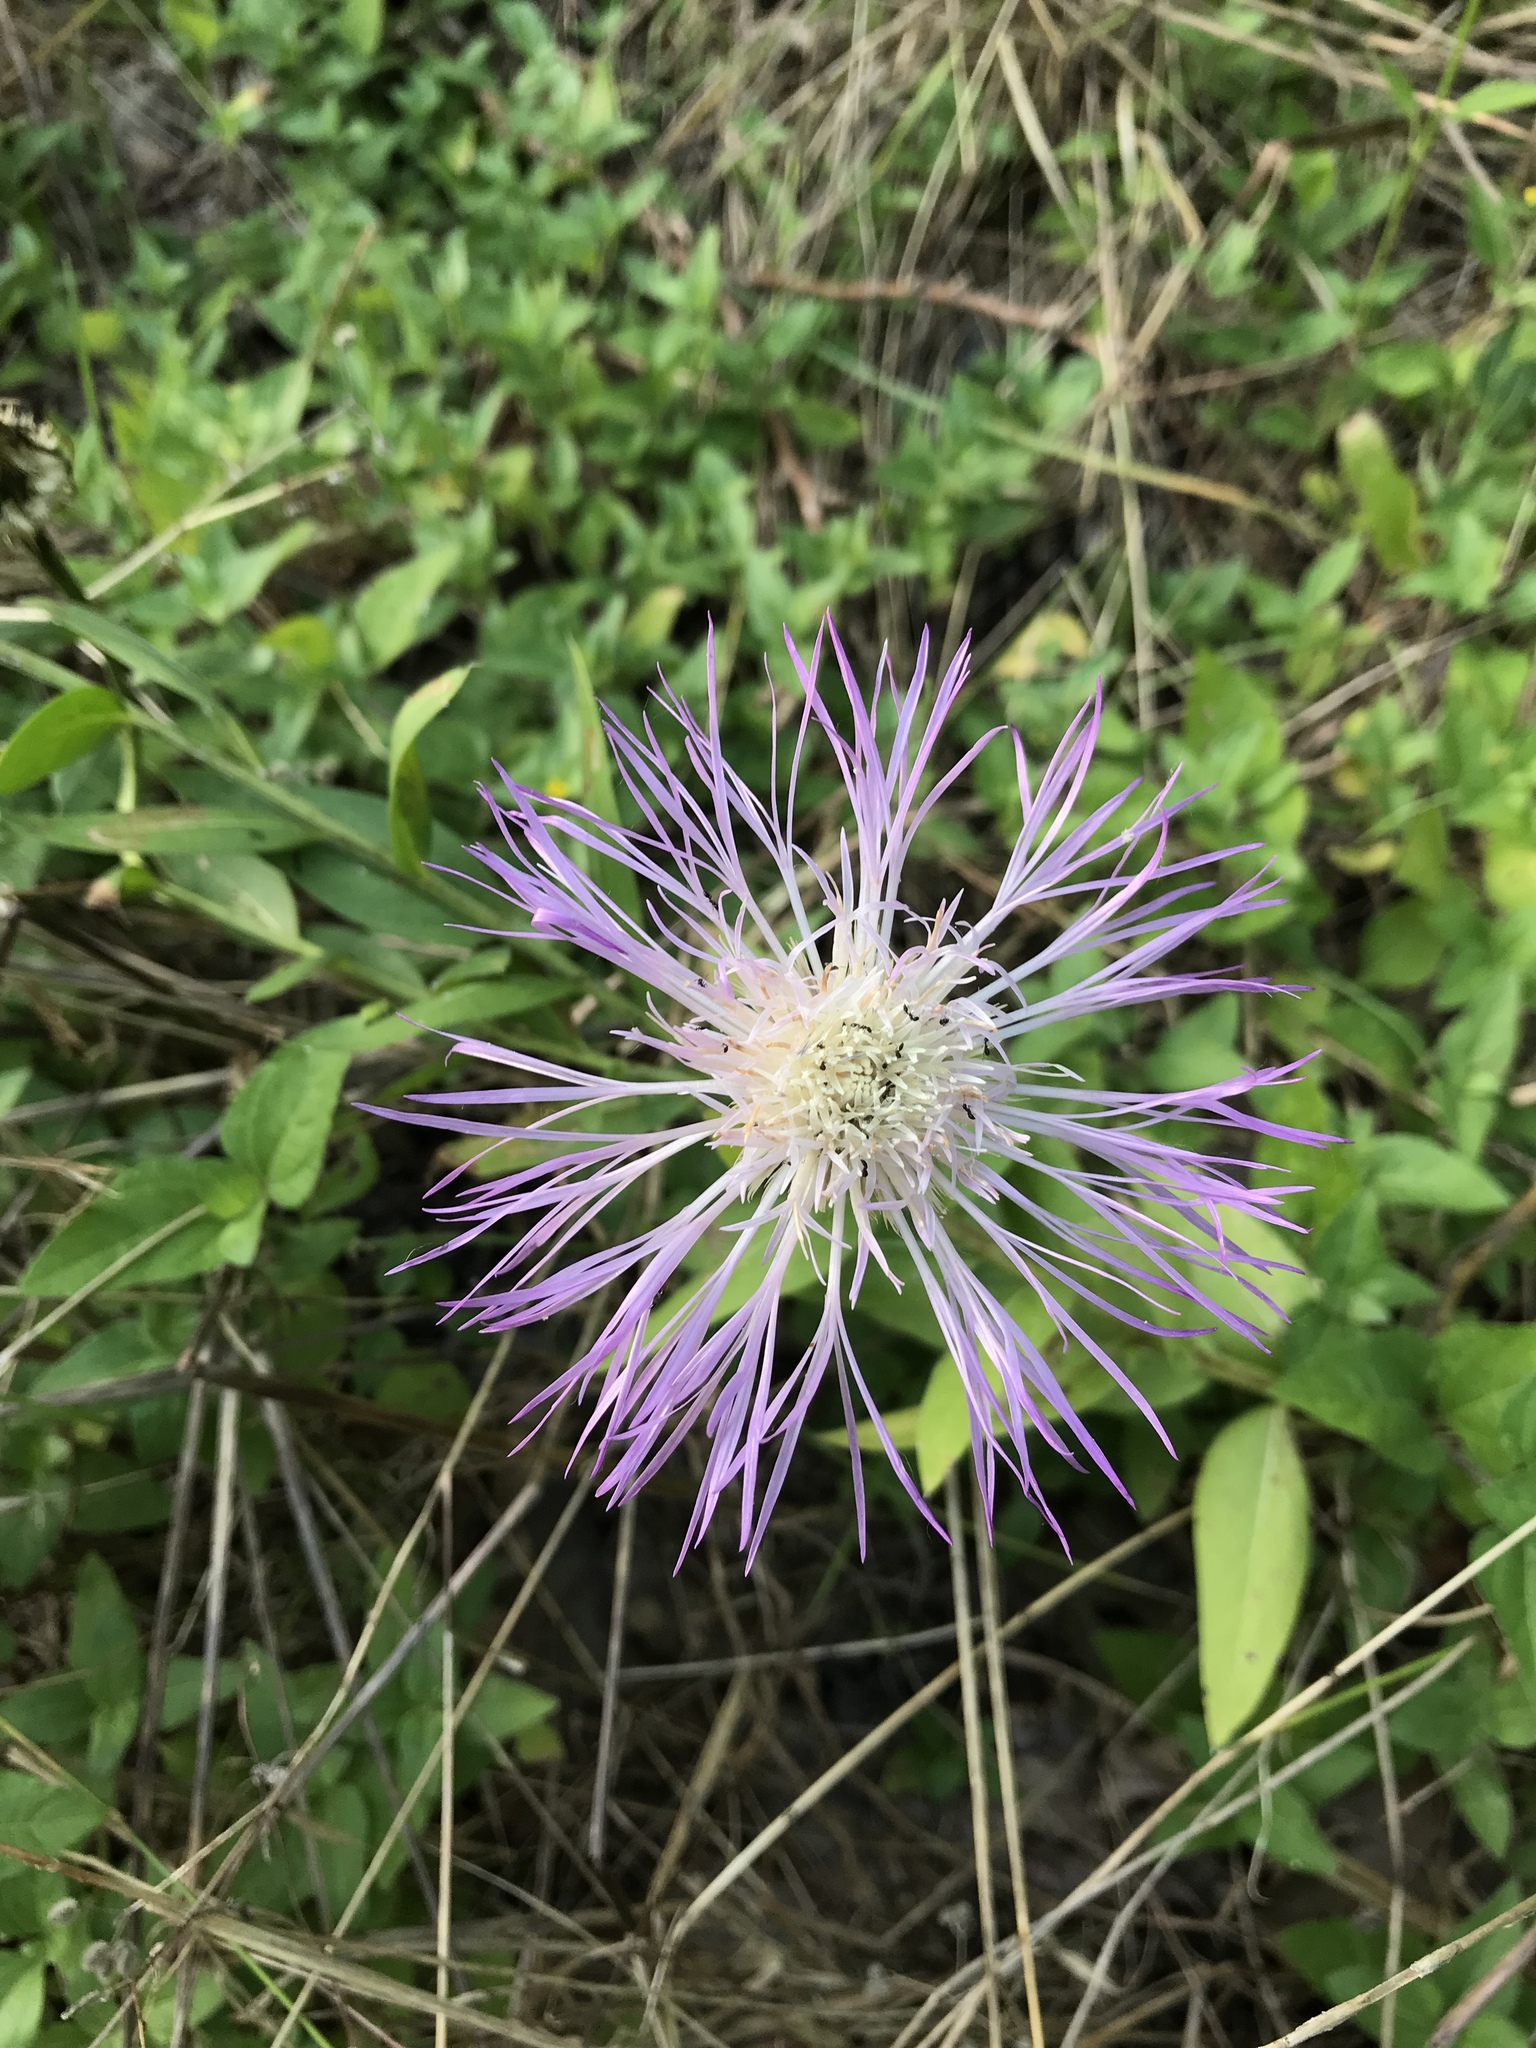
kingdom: Plantae
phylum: Tracheophyta
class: Magnoliopsida
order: Asterales
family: Asteraceae
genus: Plectocephalus
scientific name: Plectocephalus americanus
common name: American basket-flower
